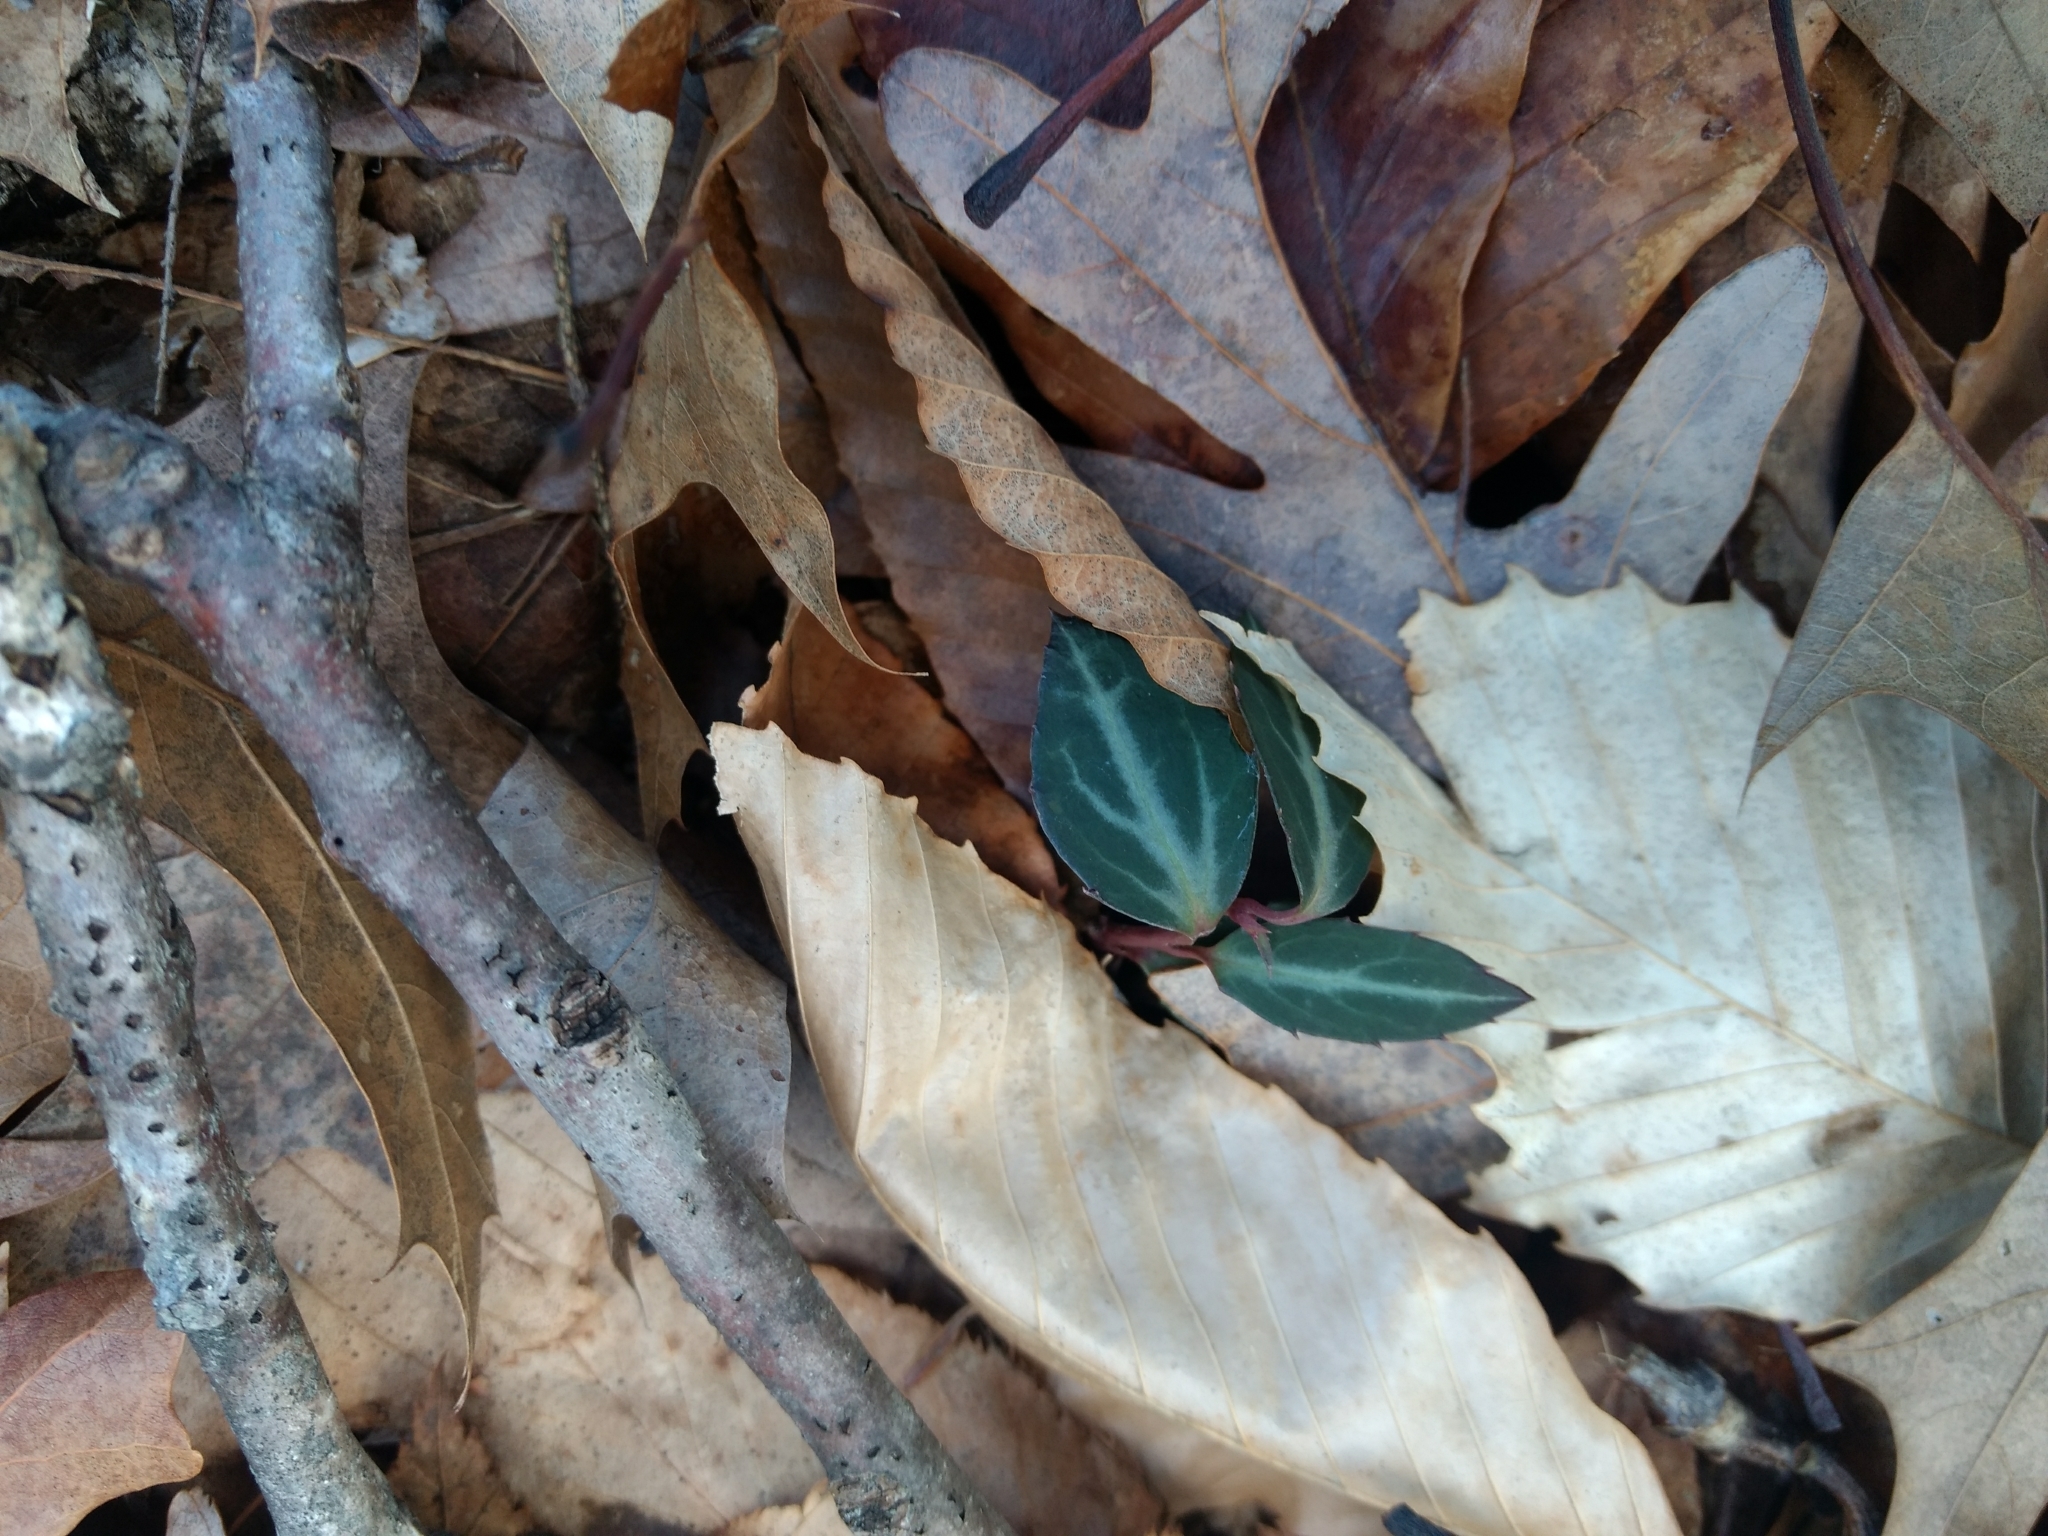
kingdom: Plantae
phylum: Tracheophyta
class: Magnoliopsida
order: Ericales
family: Ericaceae
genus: Chimaphila
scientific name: Chimaphila maculata
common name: Spotted pipsissewa
